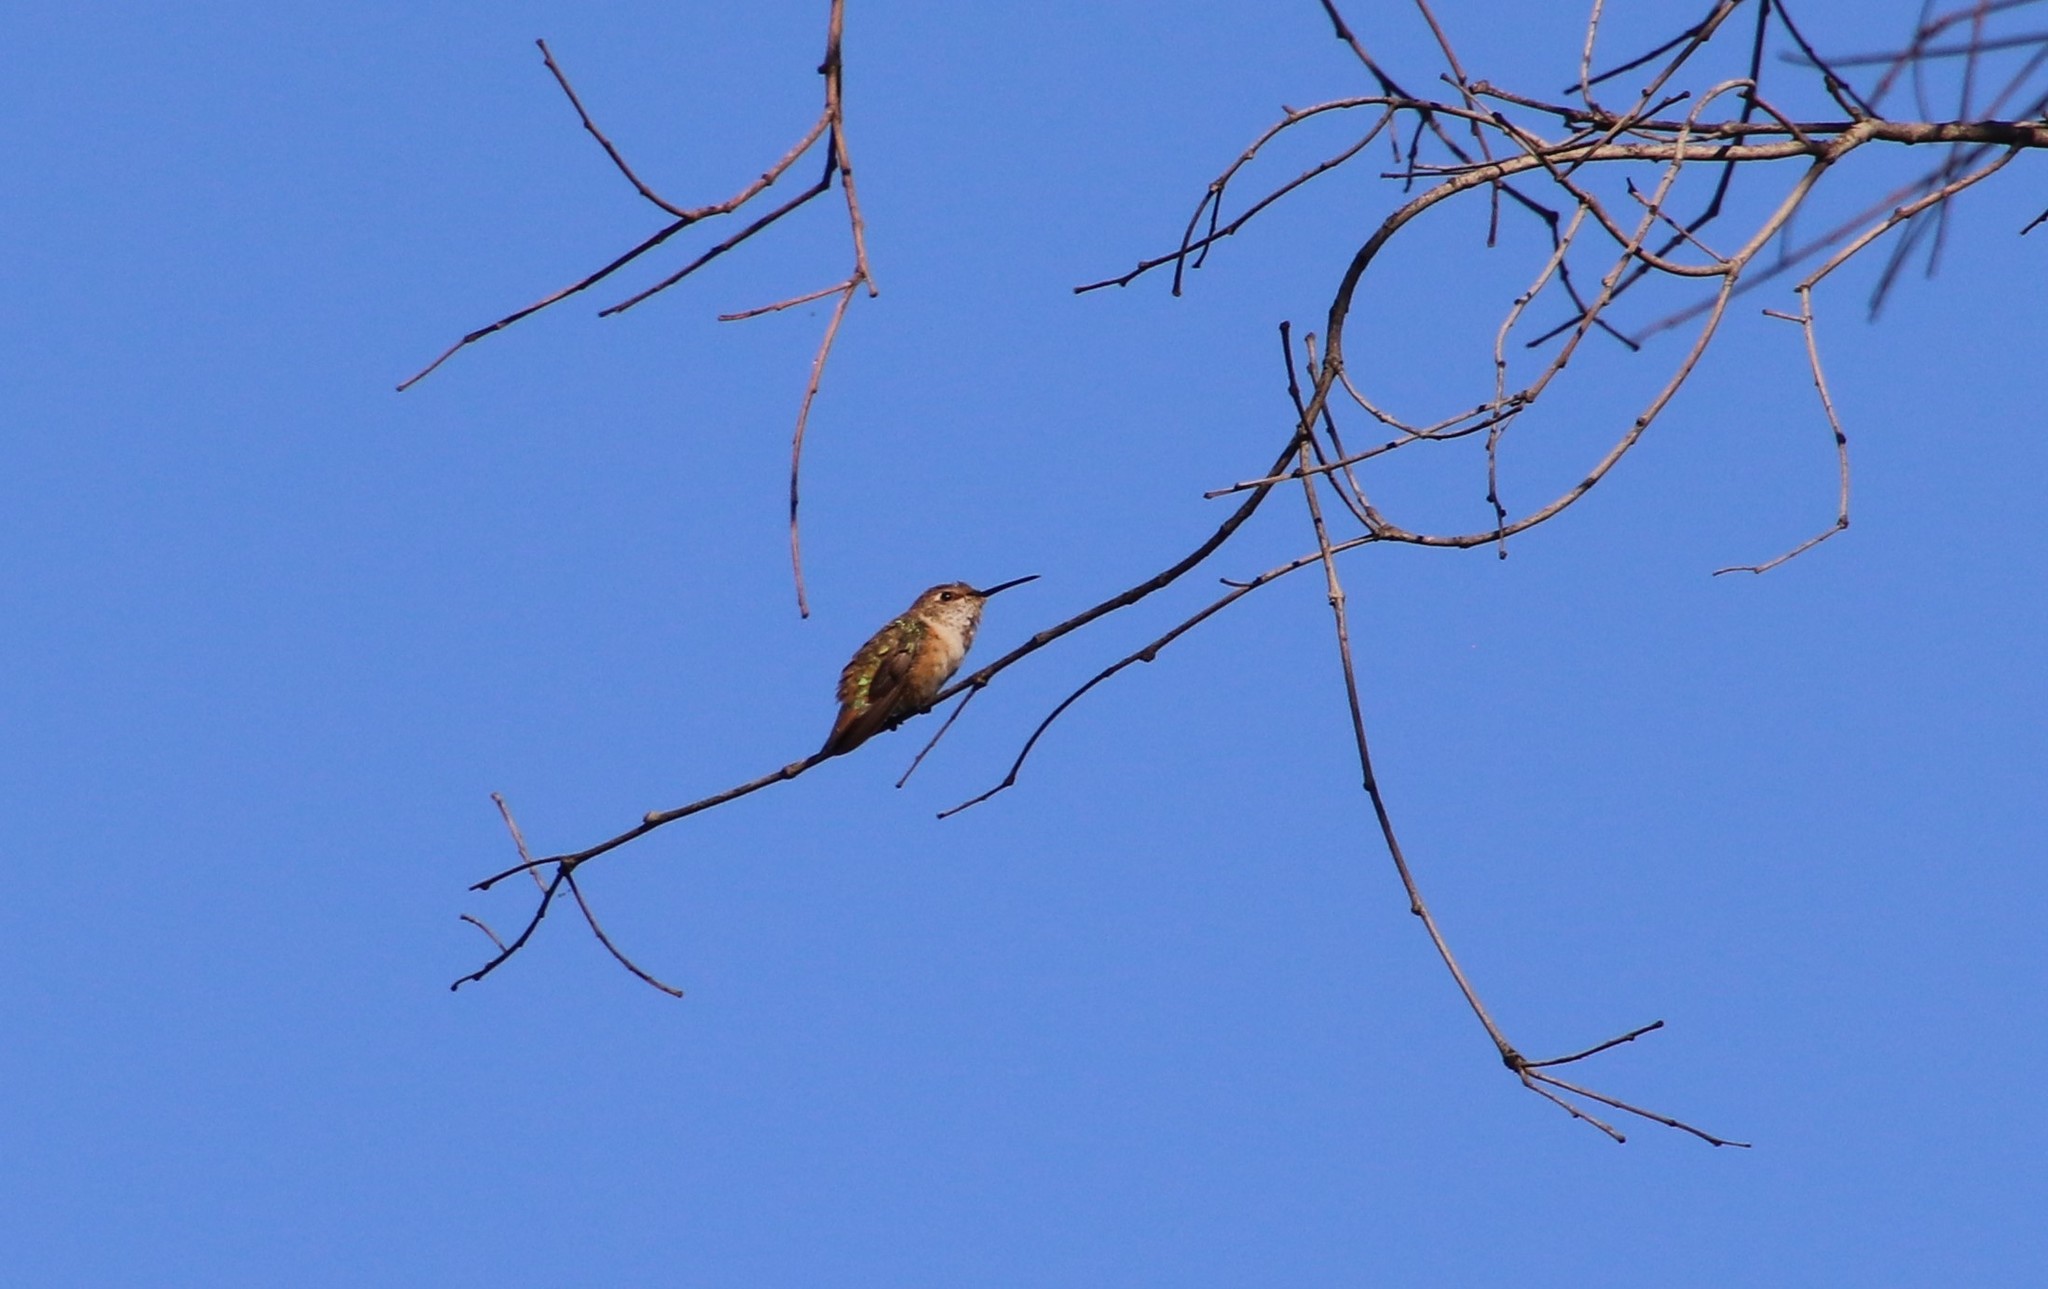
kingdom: Animalia
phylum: Chordata
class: Aves
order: Apodiformes
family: Trochilidae
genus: Selasphorus
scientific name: Selasphorus
